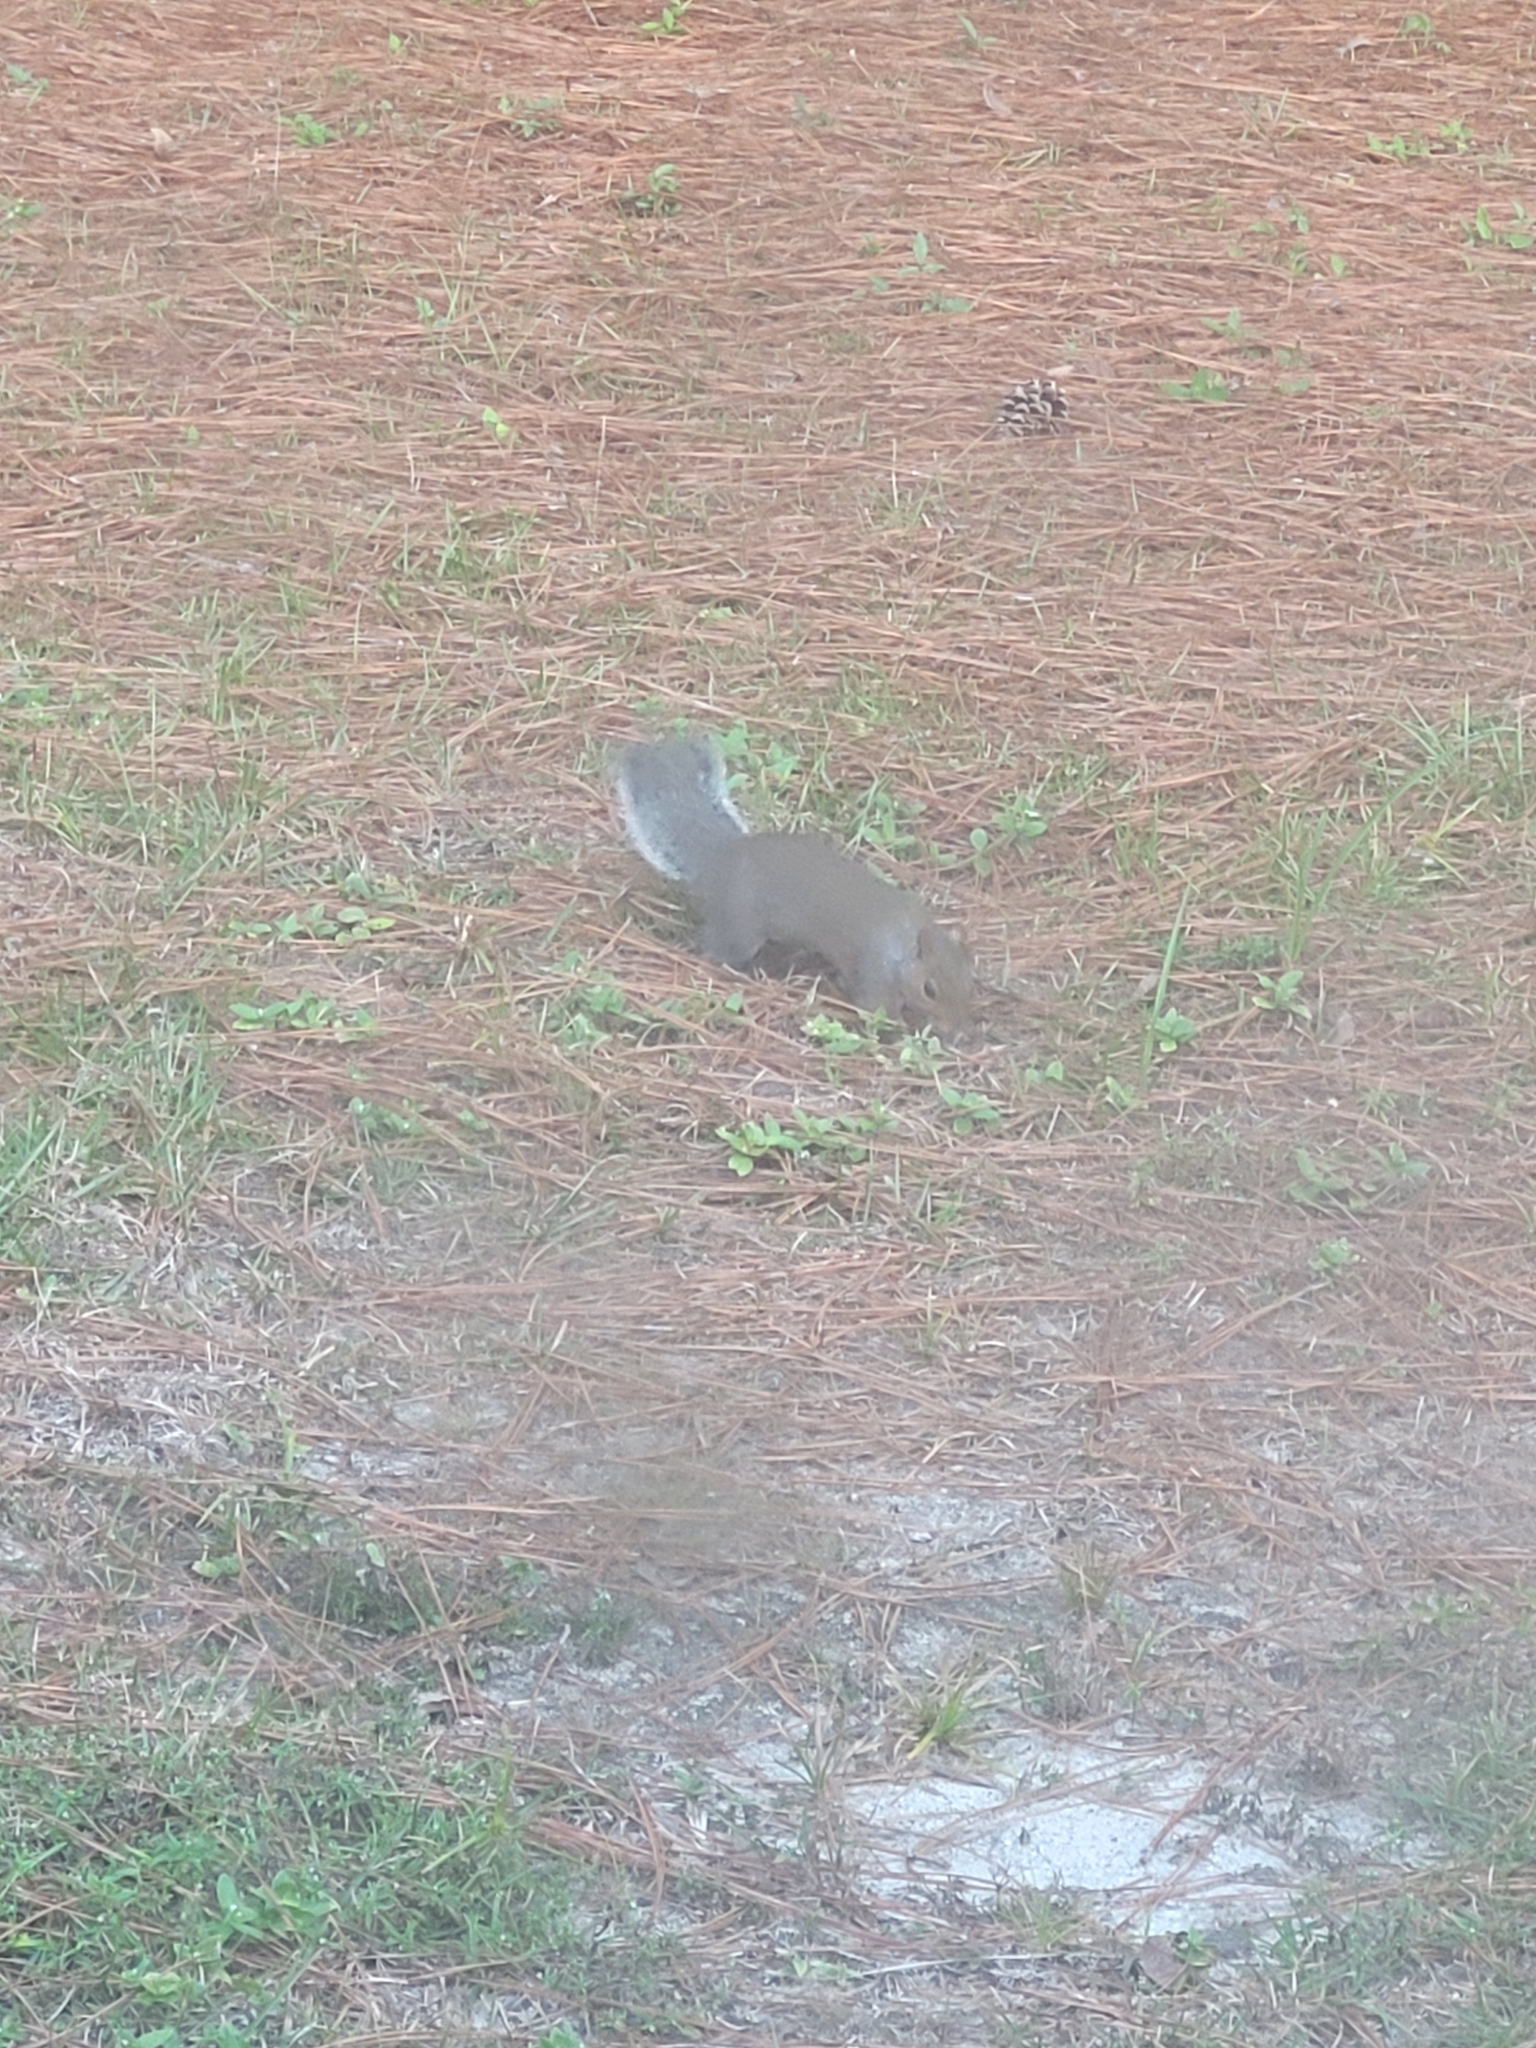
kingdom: Animalia
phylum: Chordata
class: Mammalia
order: Rodentia
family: Sciuridae
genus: Sciurus
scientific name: Sciurus carolinensis
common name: Eastern gray squirrel
